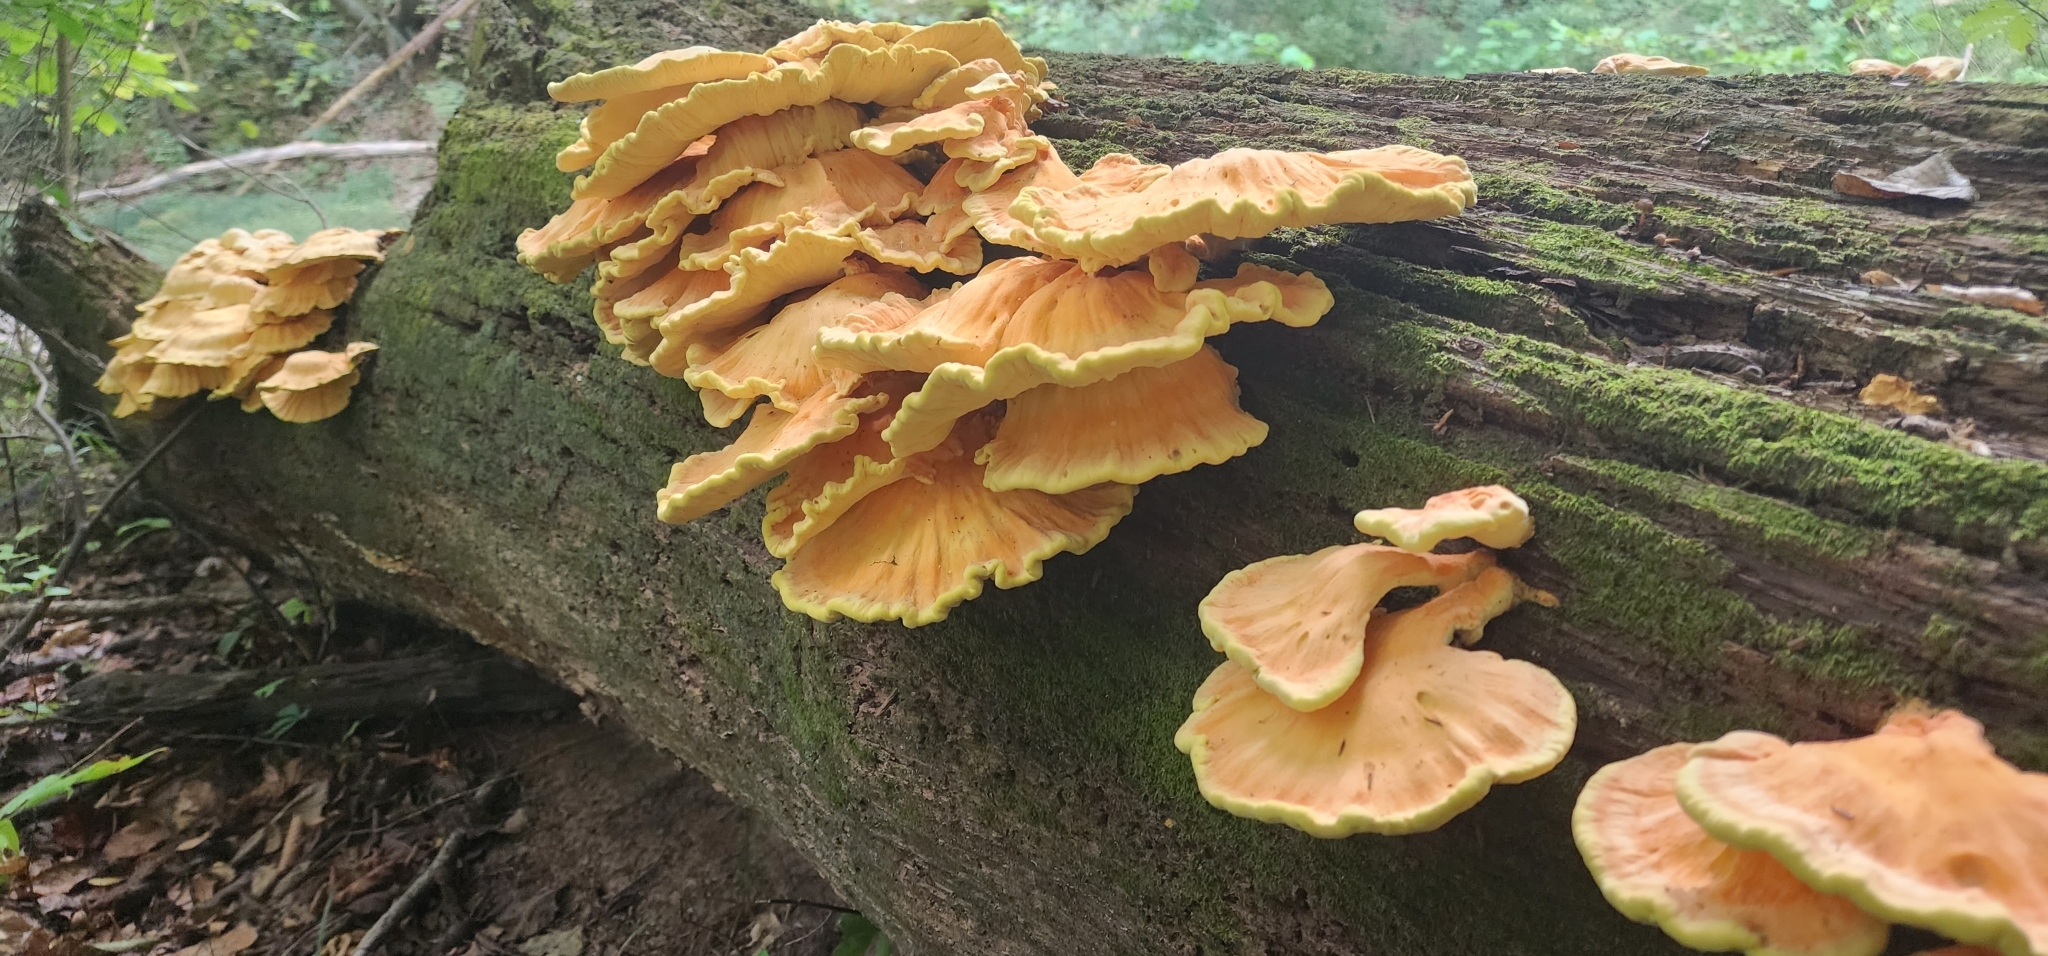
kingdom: Fungi
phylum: Basidiomycota
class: Agaricomycetes
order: Polyporales
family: Laetiporaceae
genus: Laetiporus
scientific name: Laetiporus sulphureus
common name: Chicken of the woods
